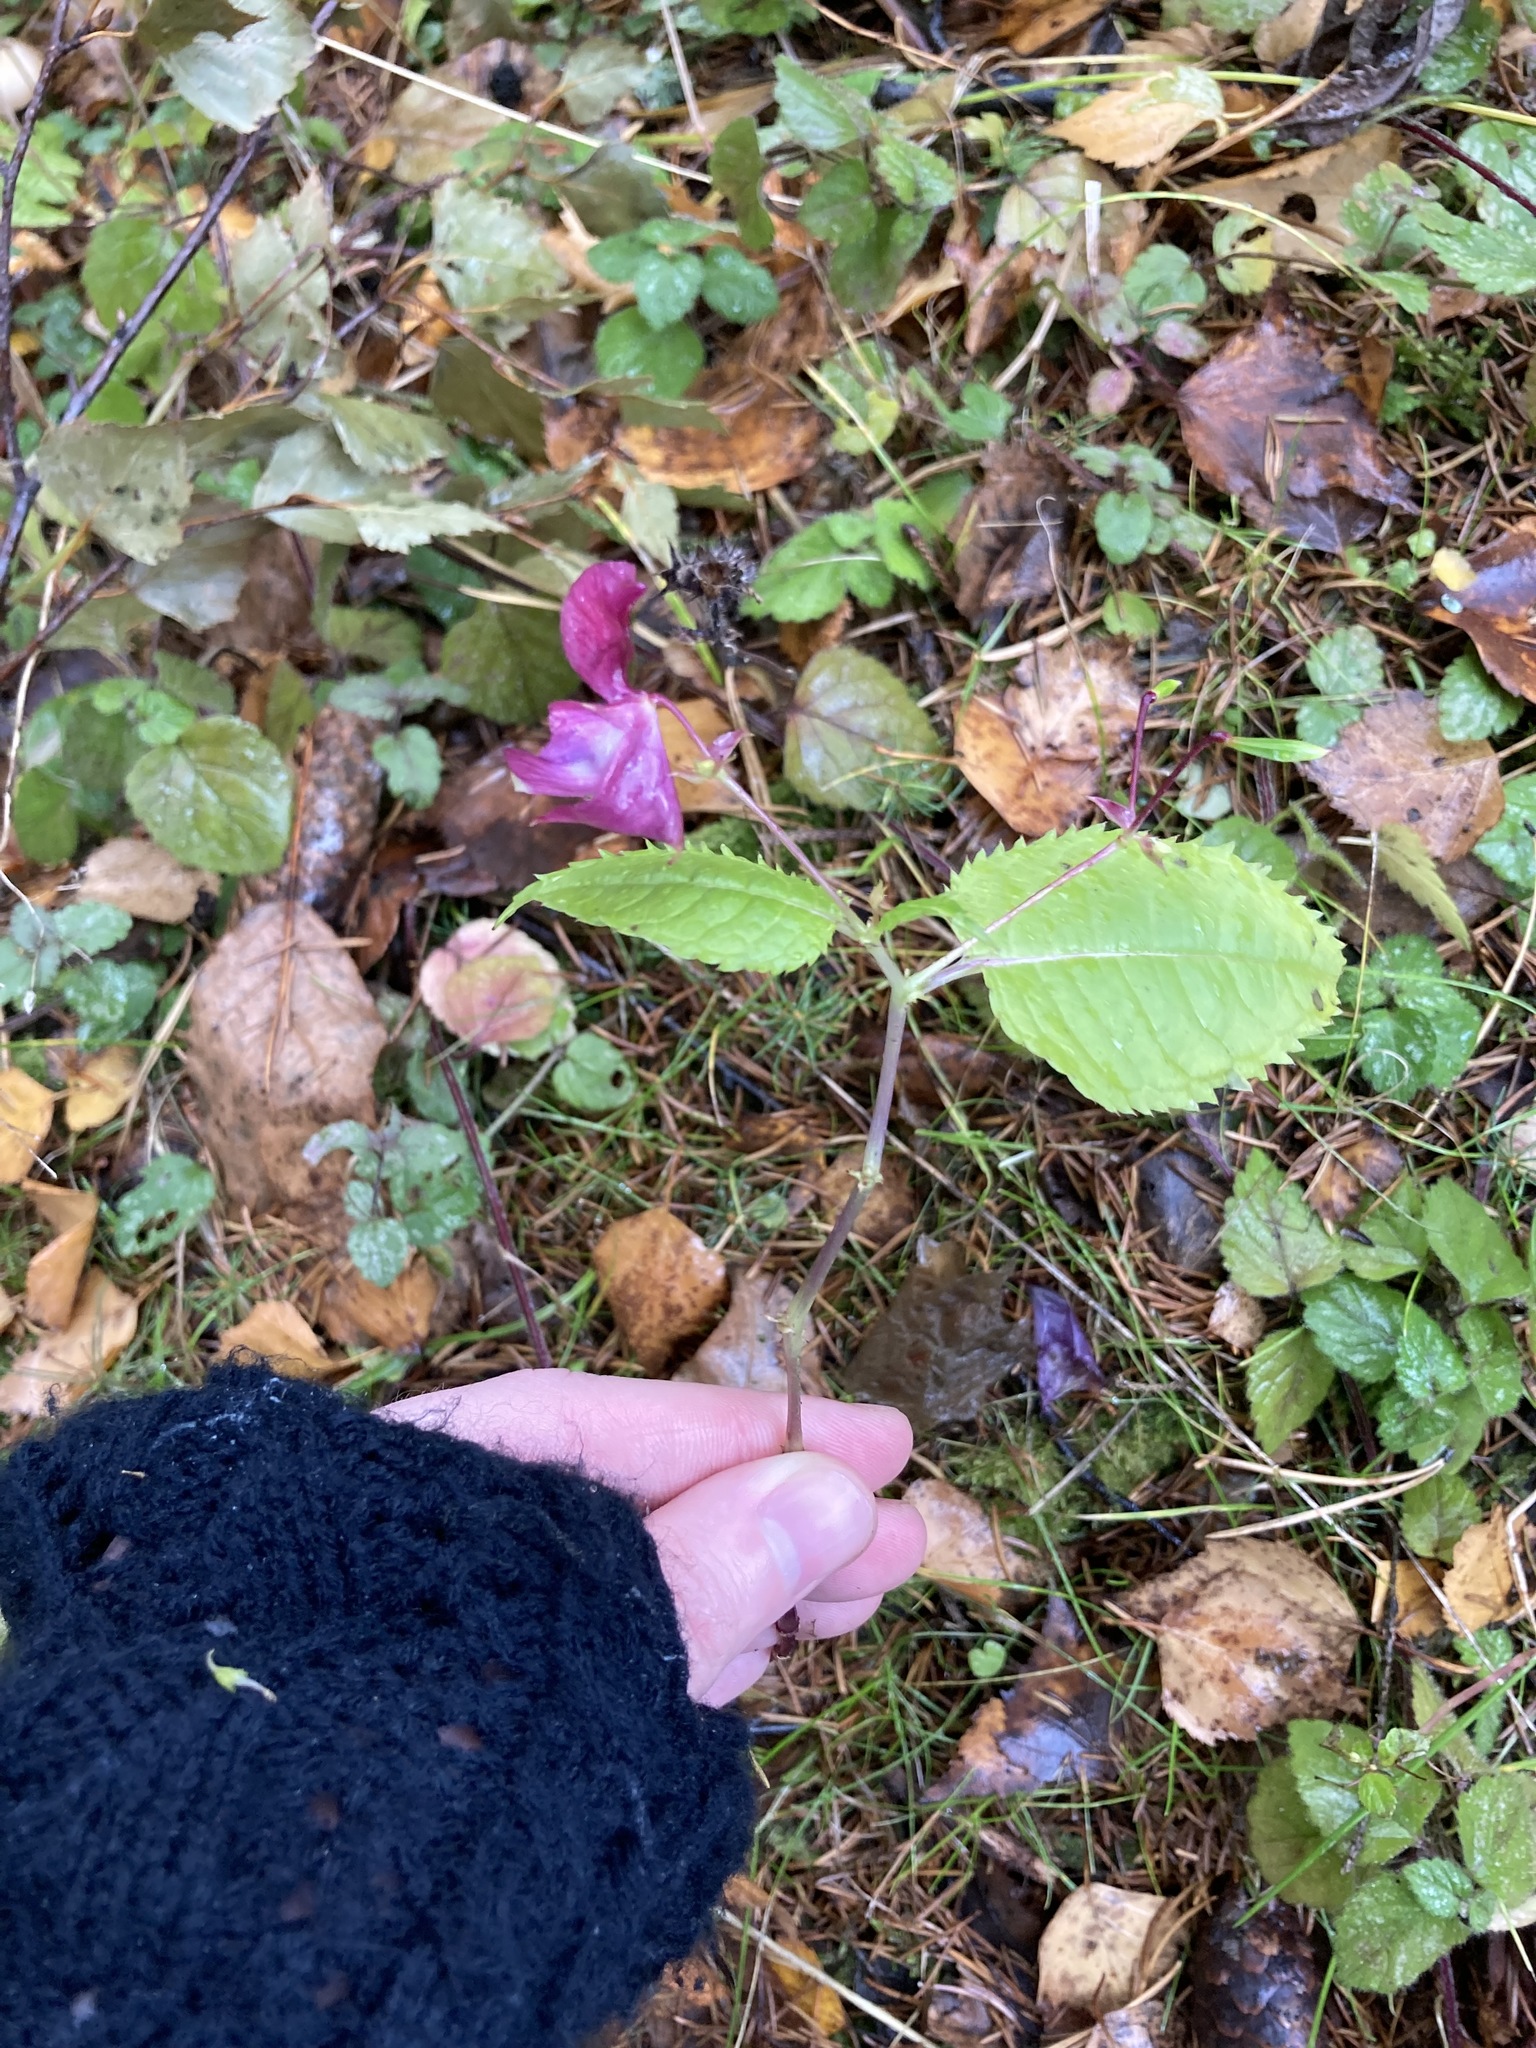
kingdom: Plantae
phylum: Tracheophyta
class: Magnoliopsida
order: Ericales
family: Balsaminaceae
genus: Impatiens
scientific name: Impatiens glandulifera
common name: Himalayan balsam
